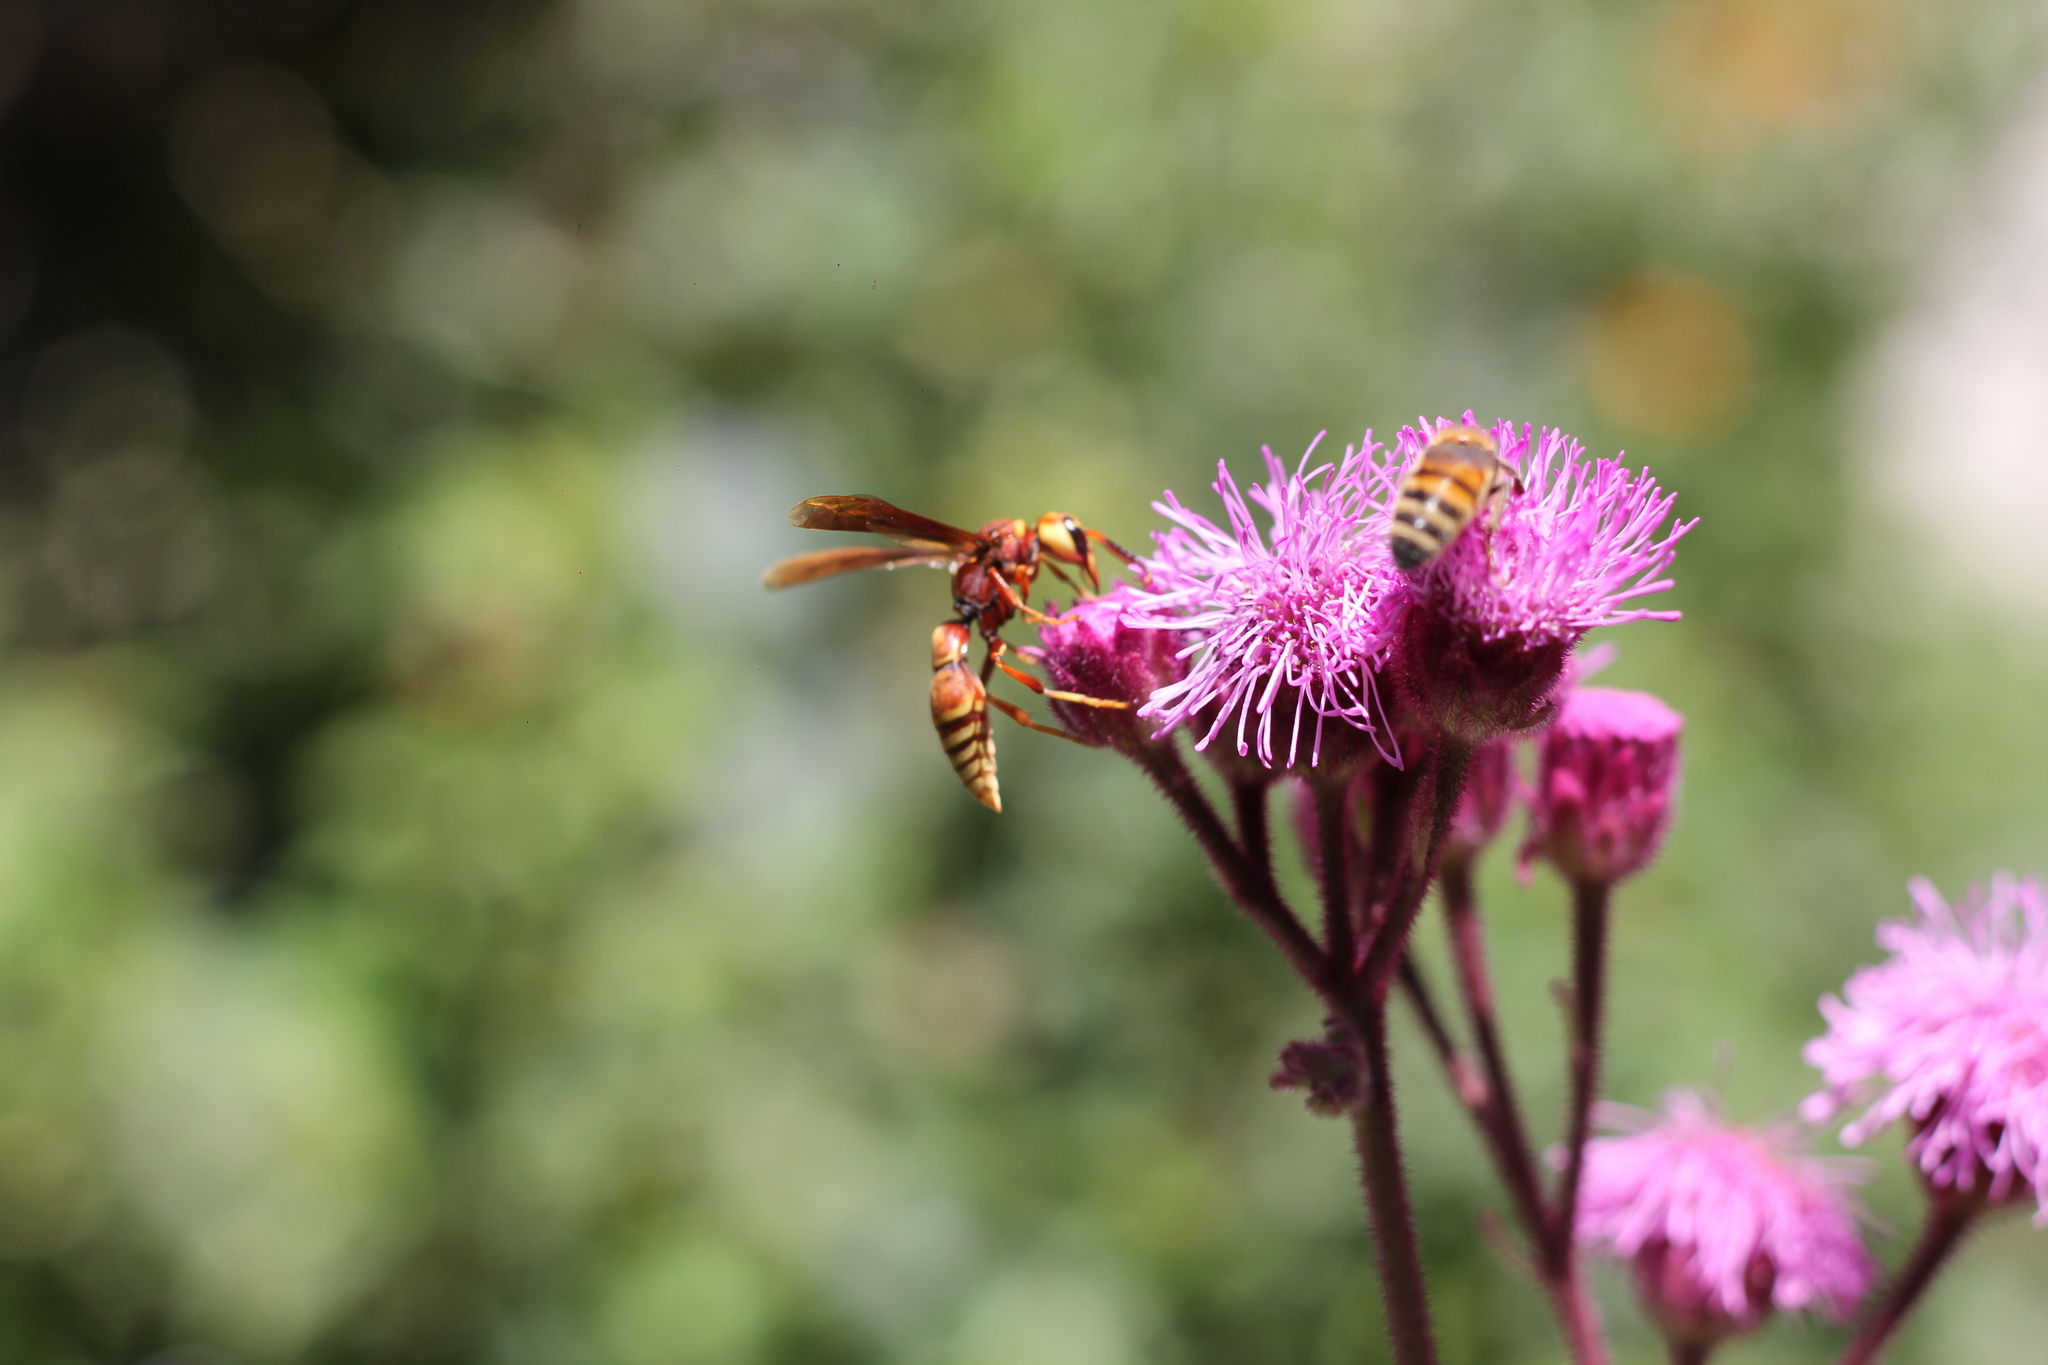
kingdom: Animalia
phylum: Arthropoda
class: Insecta
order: Hymenoptera
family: Eumenidae
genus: Montezumia
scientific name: Montezumia ferruginea
